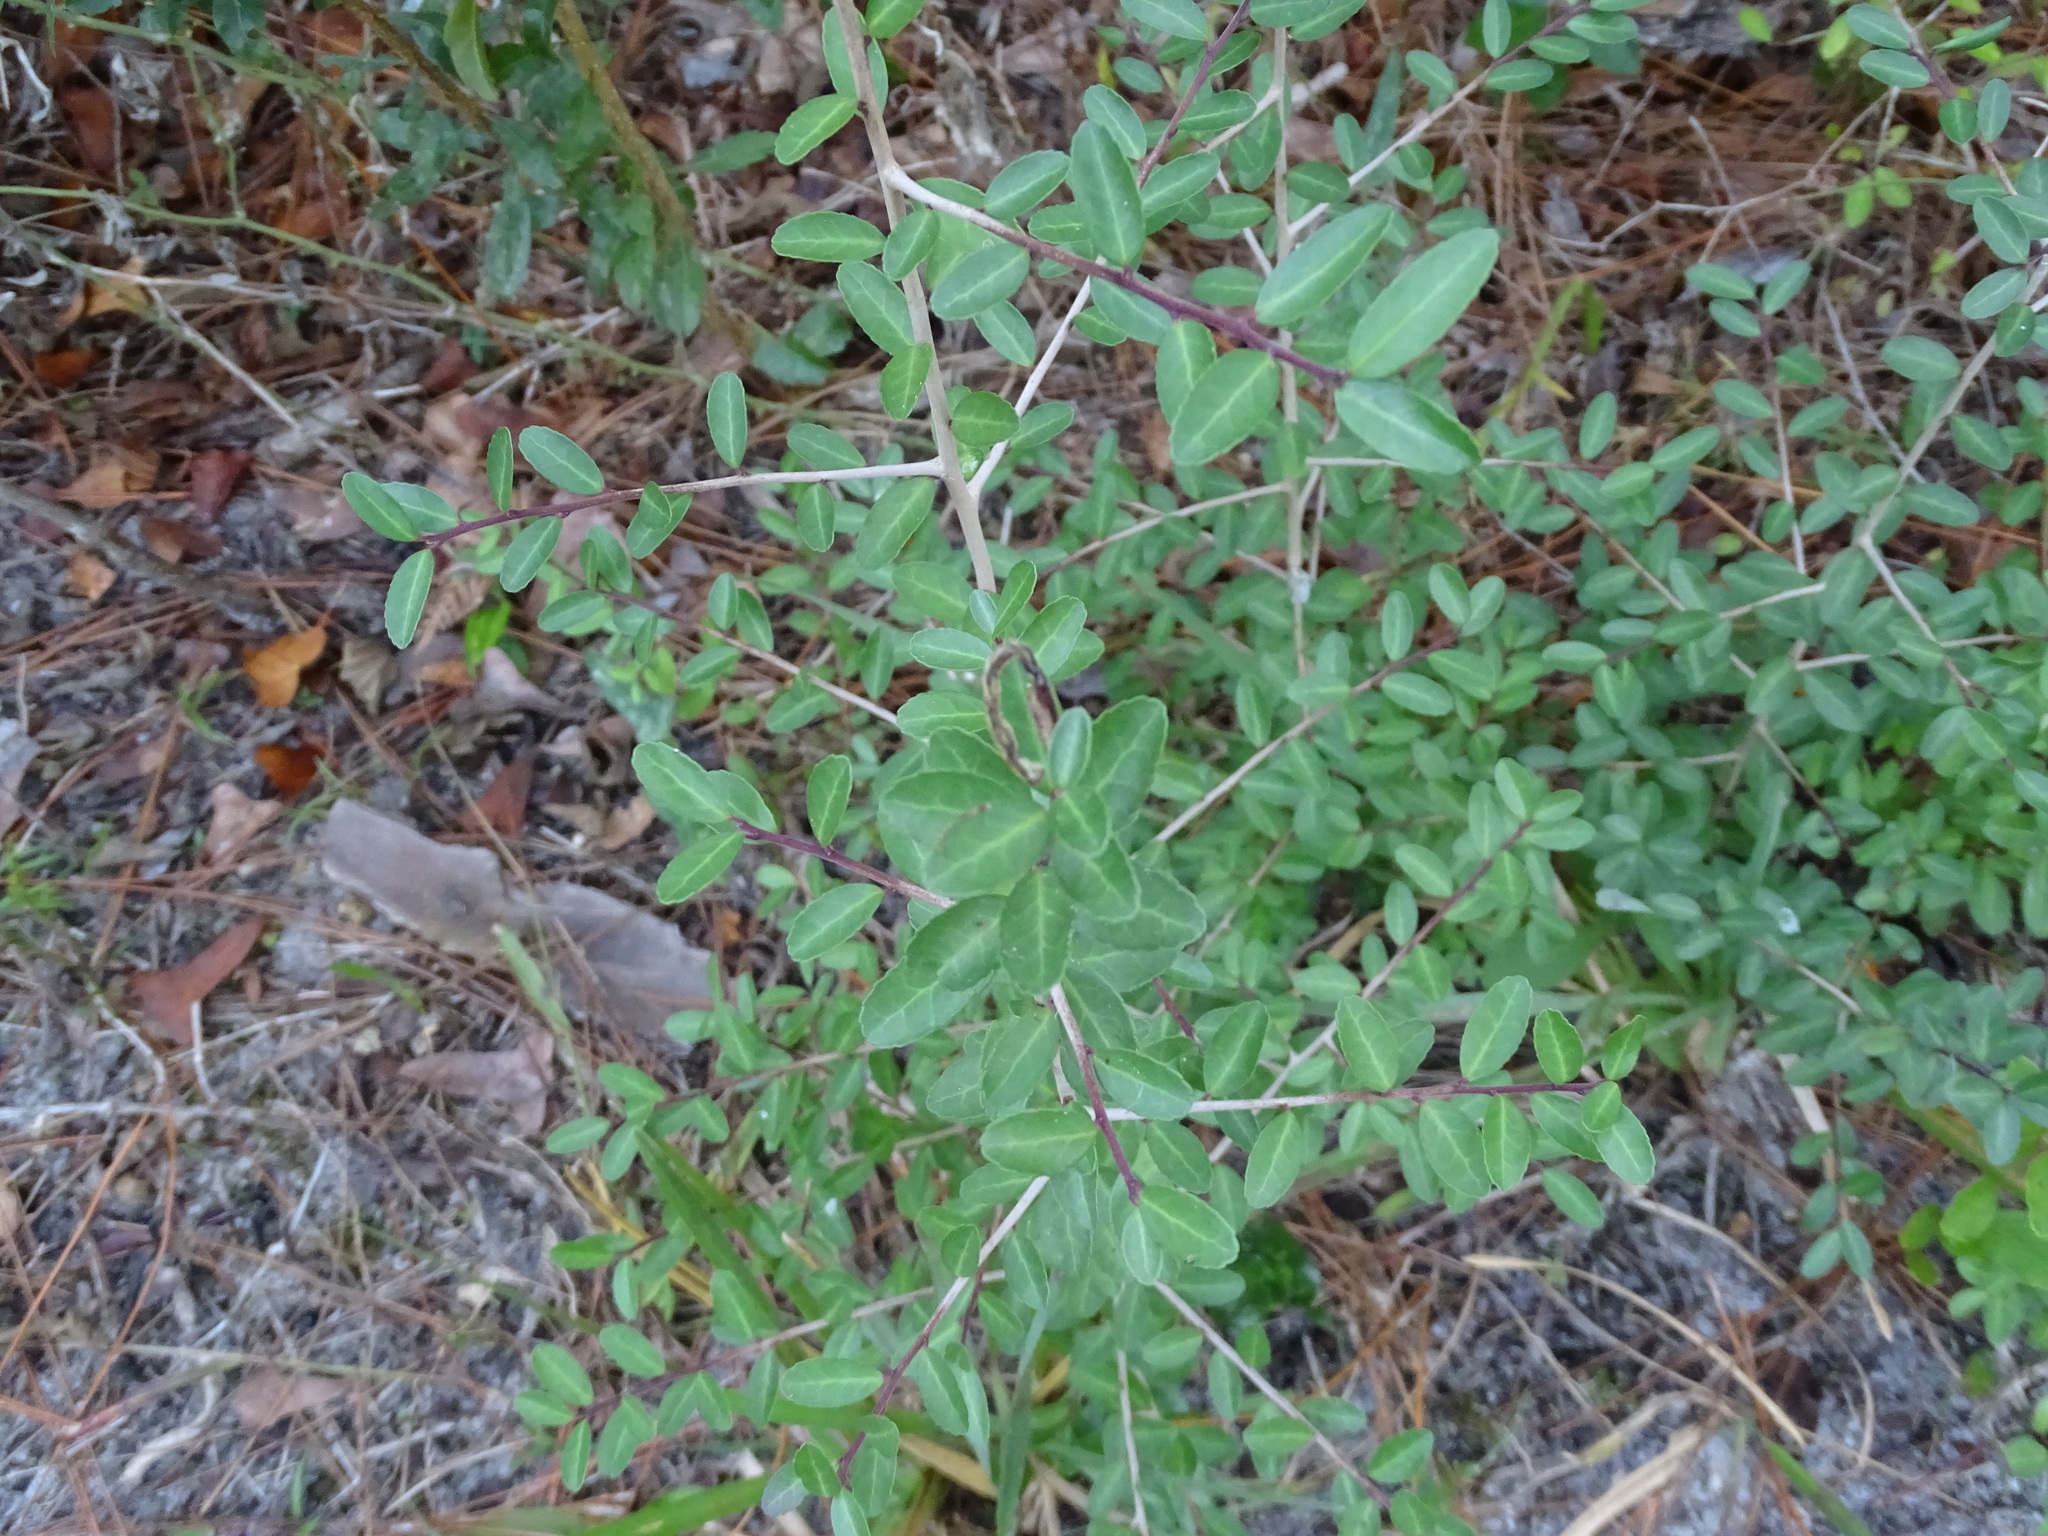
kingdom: Plantae
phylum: Tracheophyta
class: Magnoliopsida
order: Aquifoliales
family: Aquifoliaceae
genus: Ilex
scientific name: Ilex vomitoria
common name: Yaupon holly
